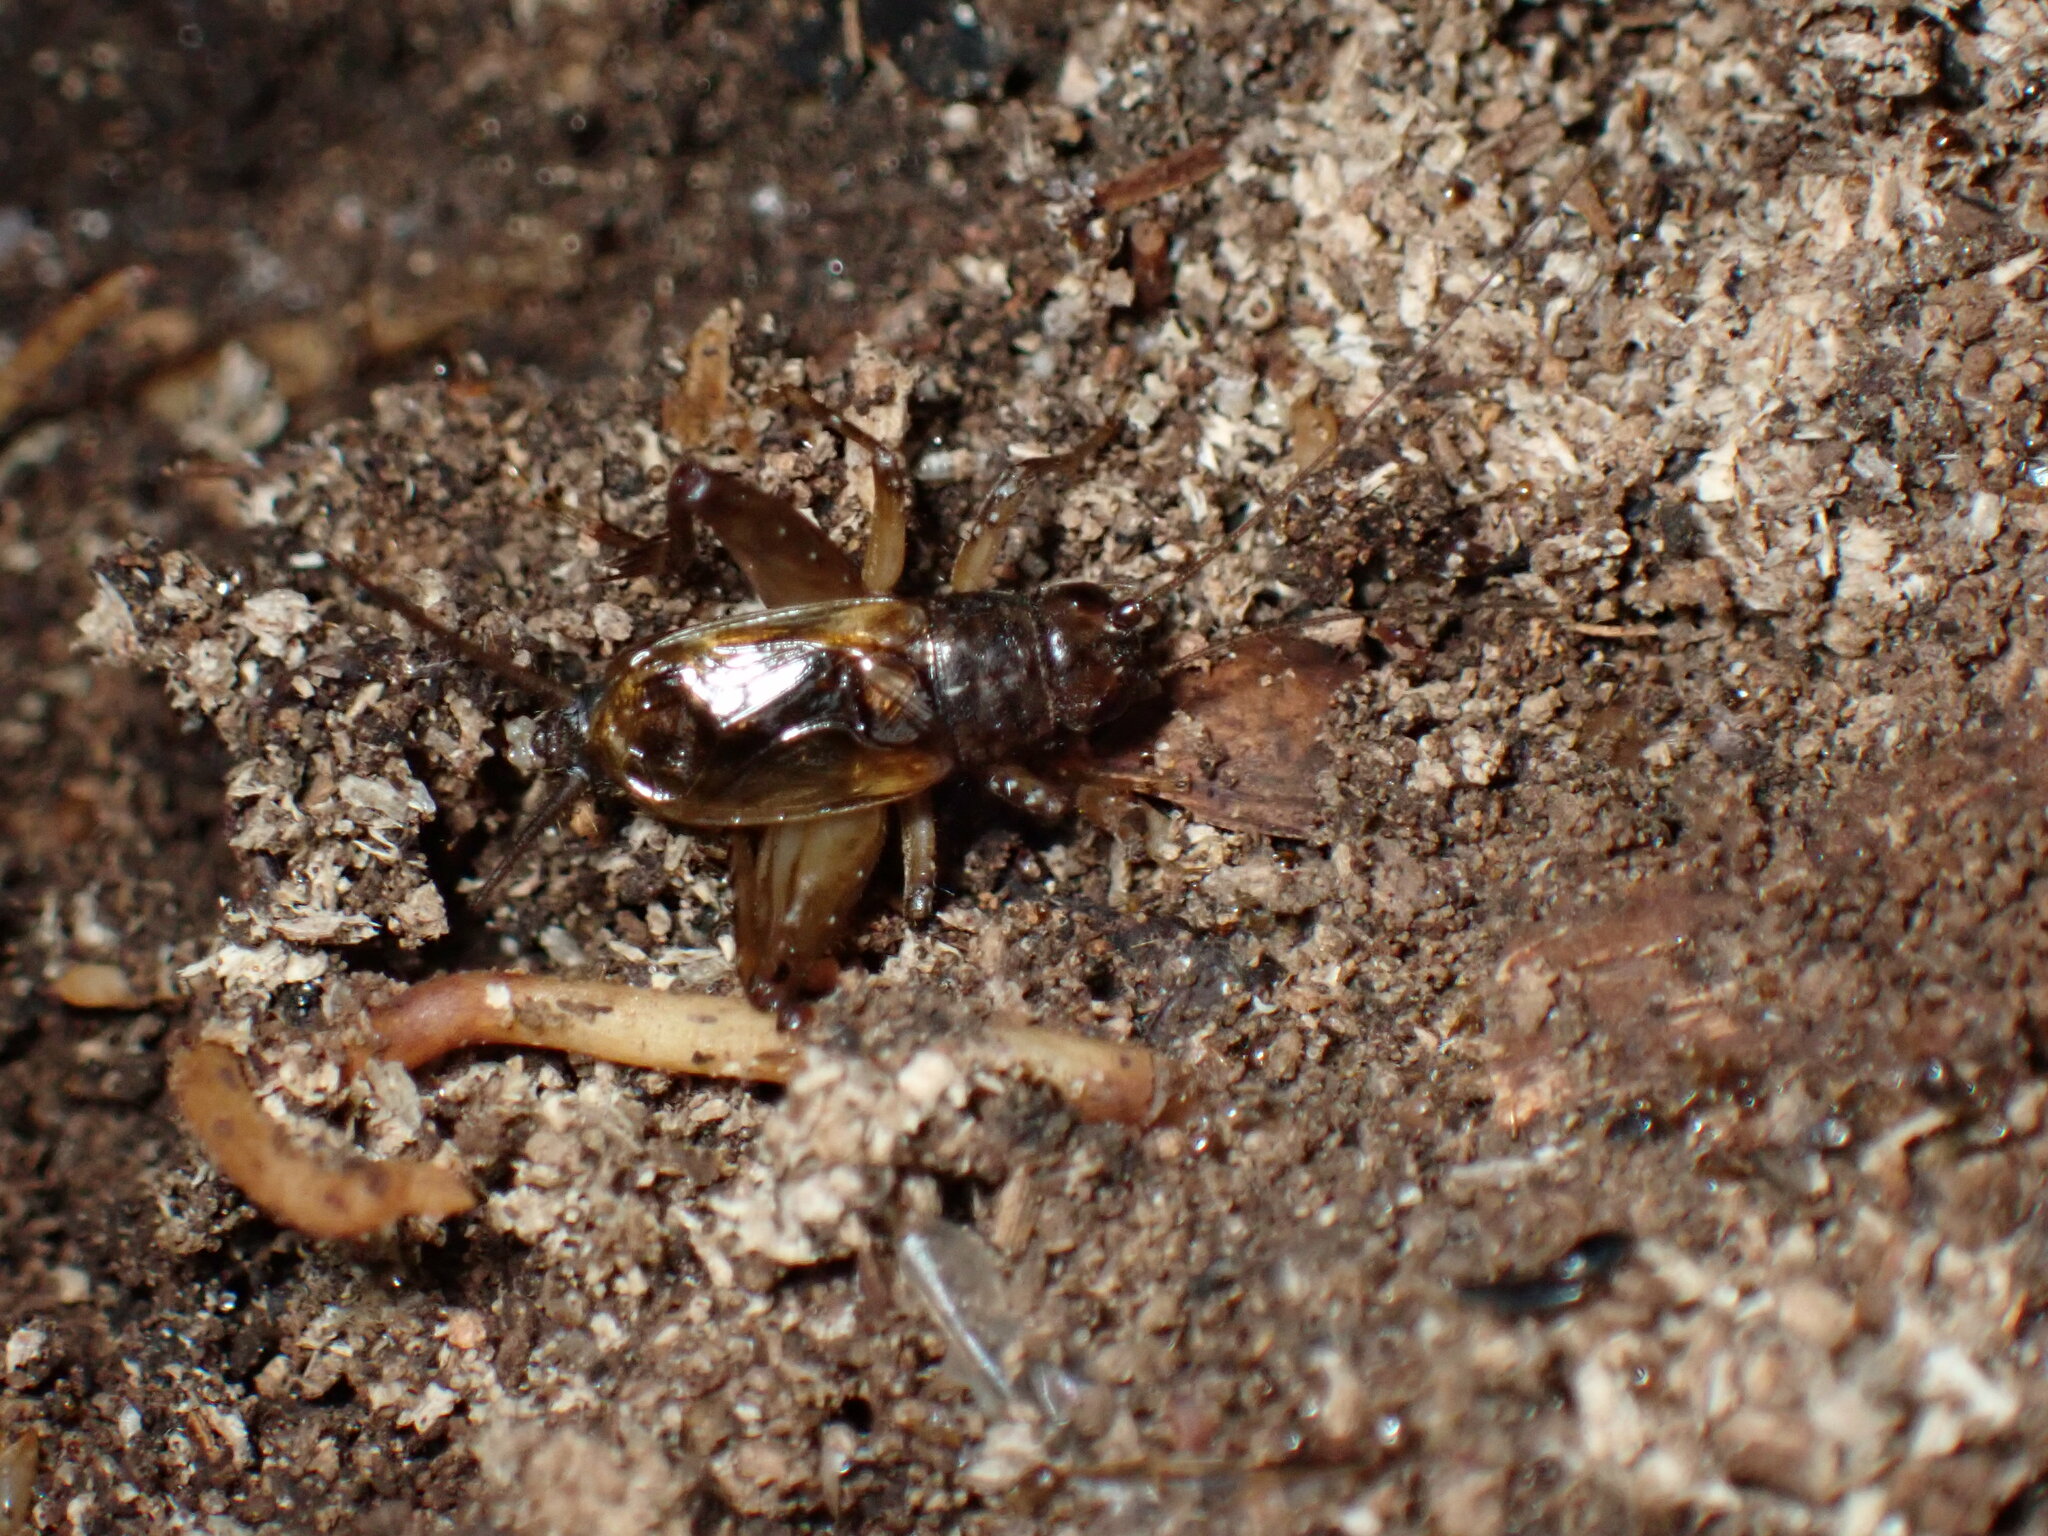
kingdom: Animalia
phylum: Arthropoda
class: Insecta
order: Orthoptera
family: Trigonidiidae
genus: Eunemobius
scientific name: Eunemobius carolinus
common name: Carolina ground cricket
